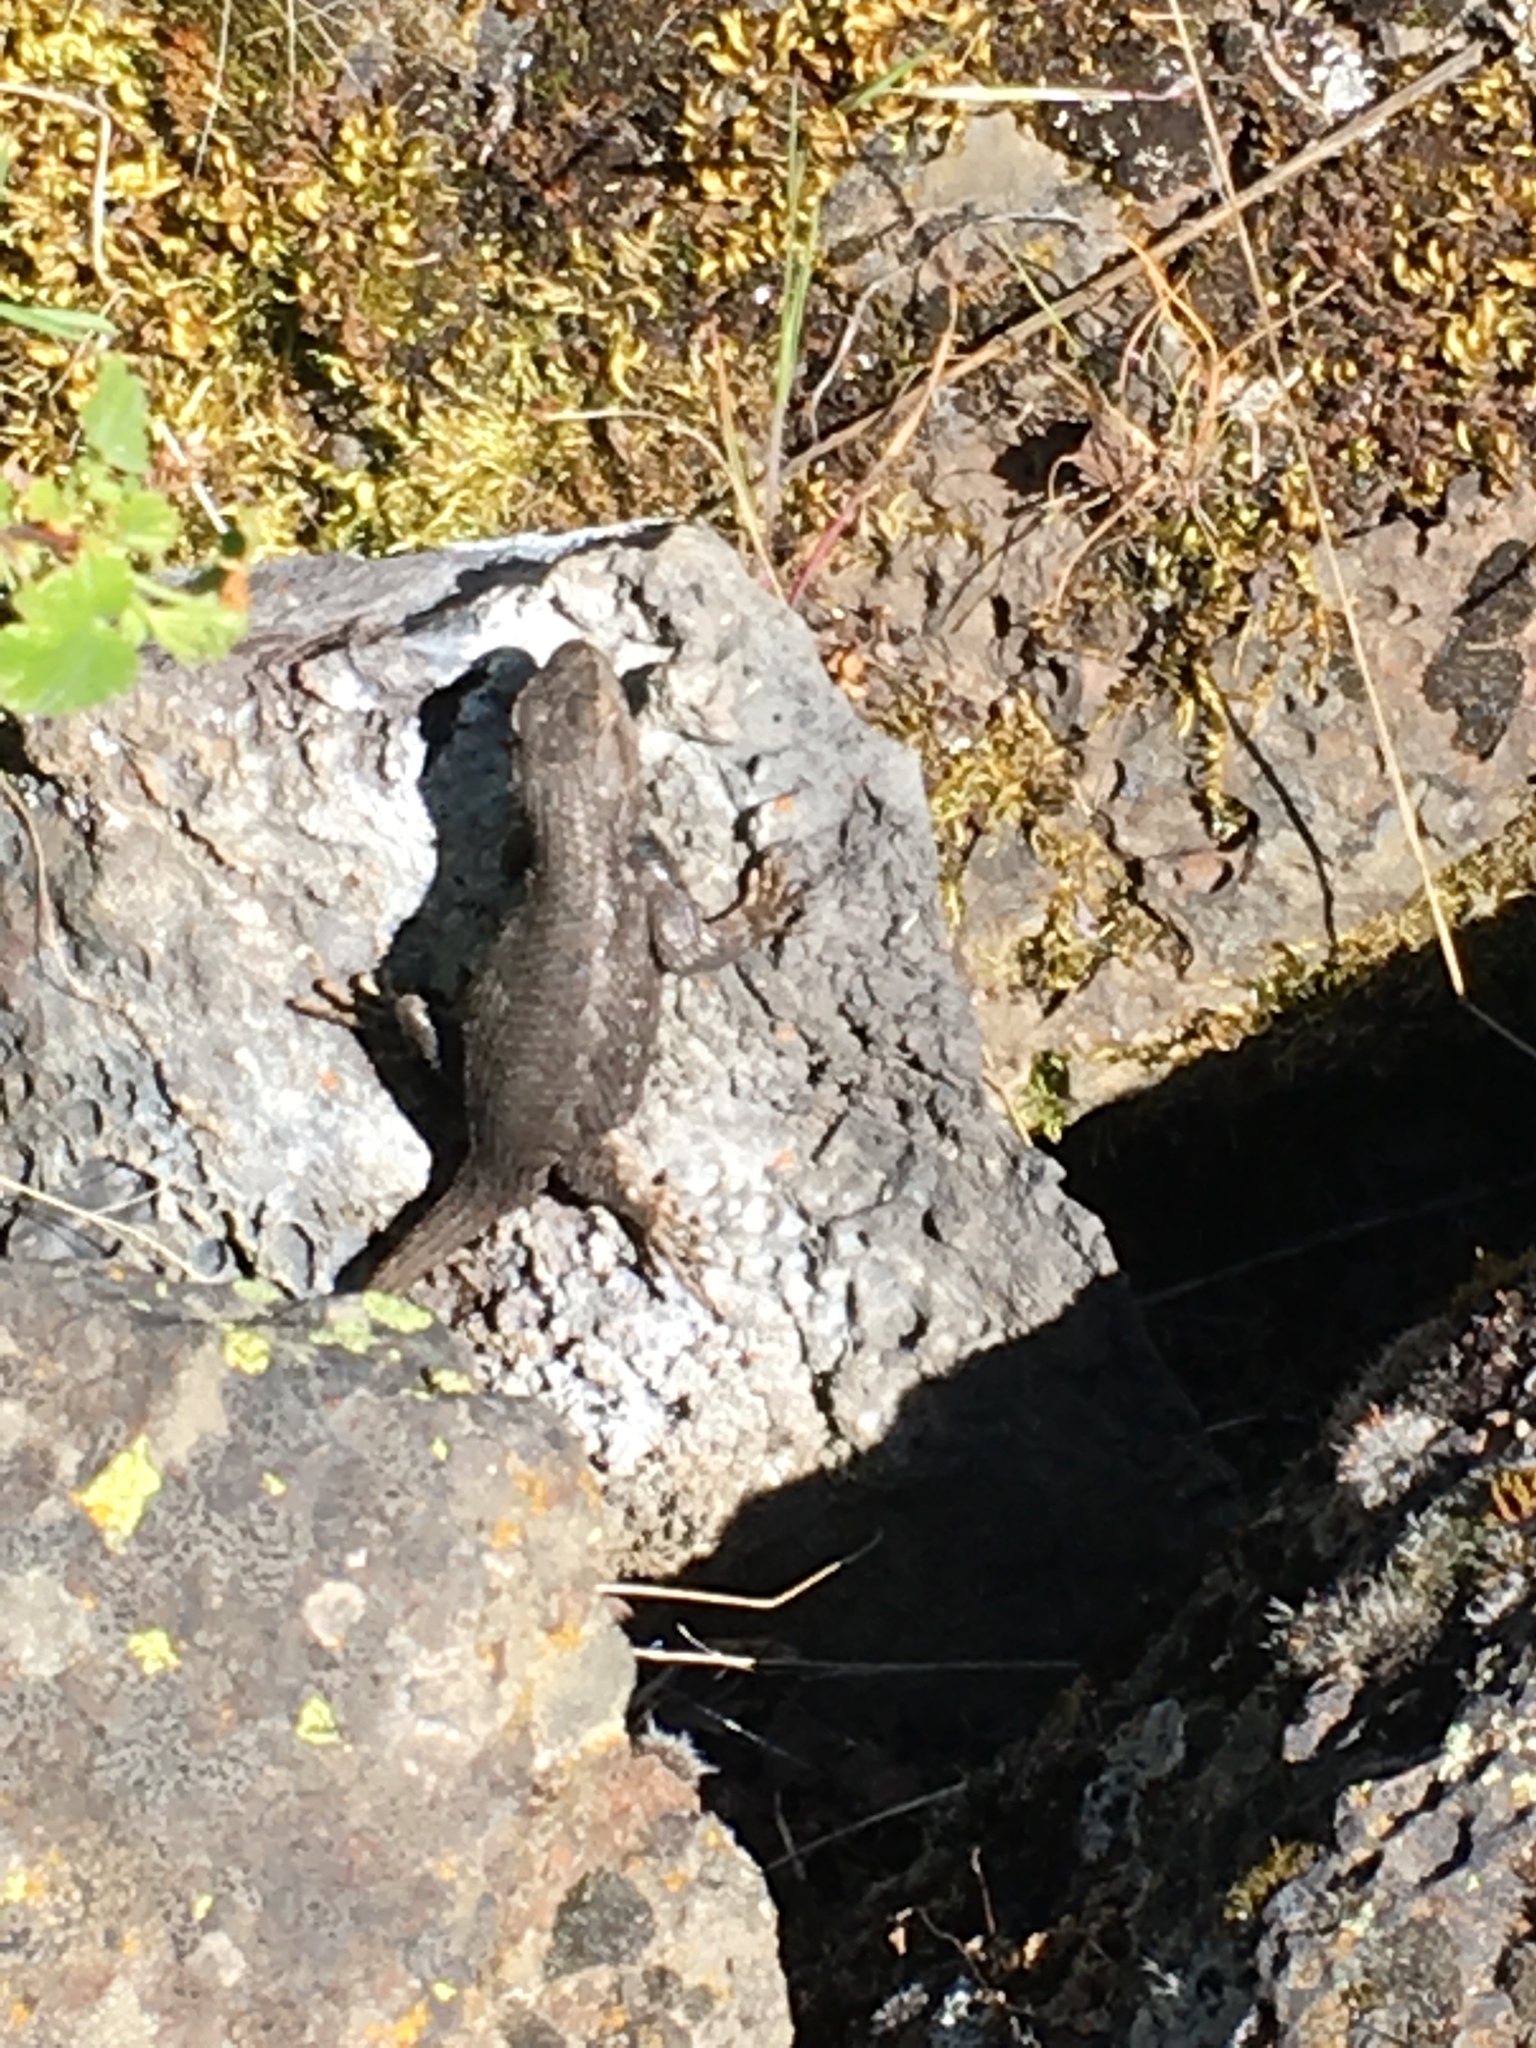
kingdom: Animalia
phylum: Chordata
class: Squamata
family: Phrynosomatidae
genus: Sceloporus
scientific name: Sceloporus occidentalis
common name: Western fence lizard
